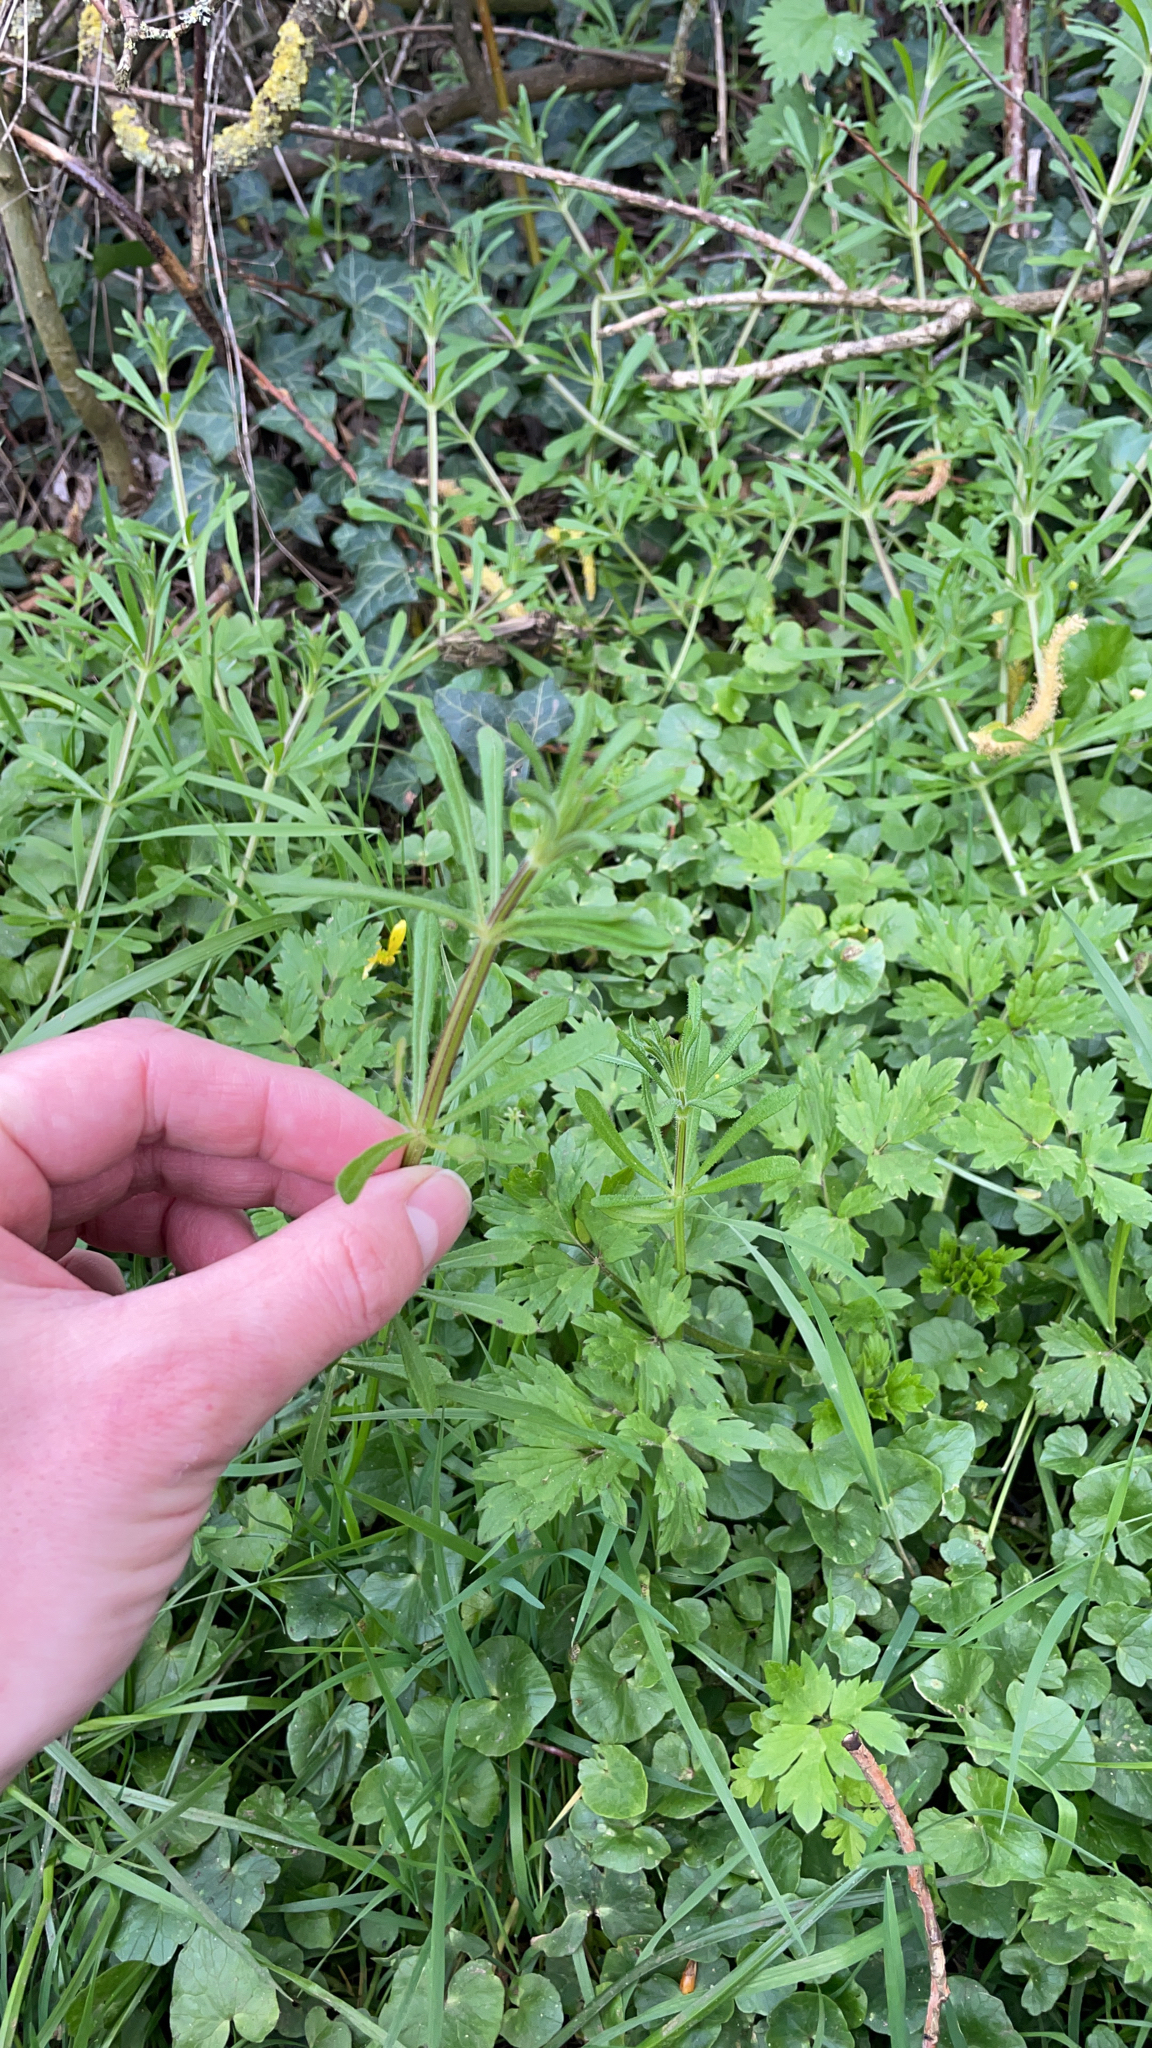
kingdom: Plantae
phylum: Tracheophyta
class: Magnoliopsida
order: Gentianales
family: Rubiaceae
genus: Galium
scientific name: Galium aparine
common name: Cleavers
